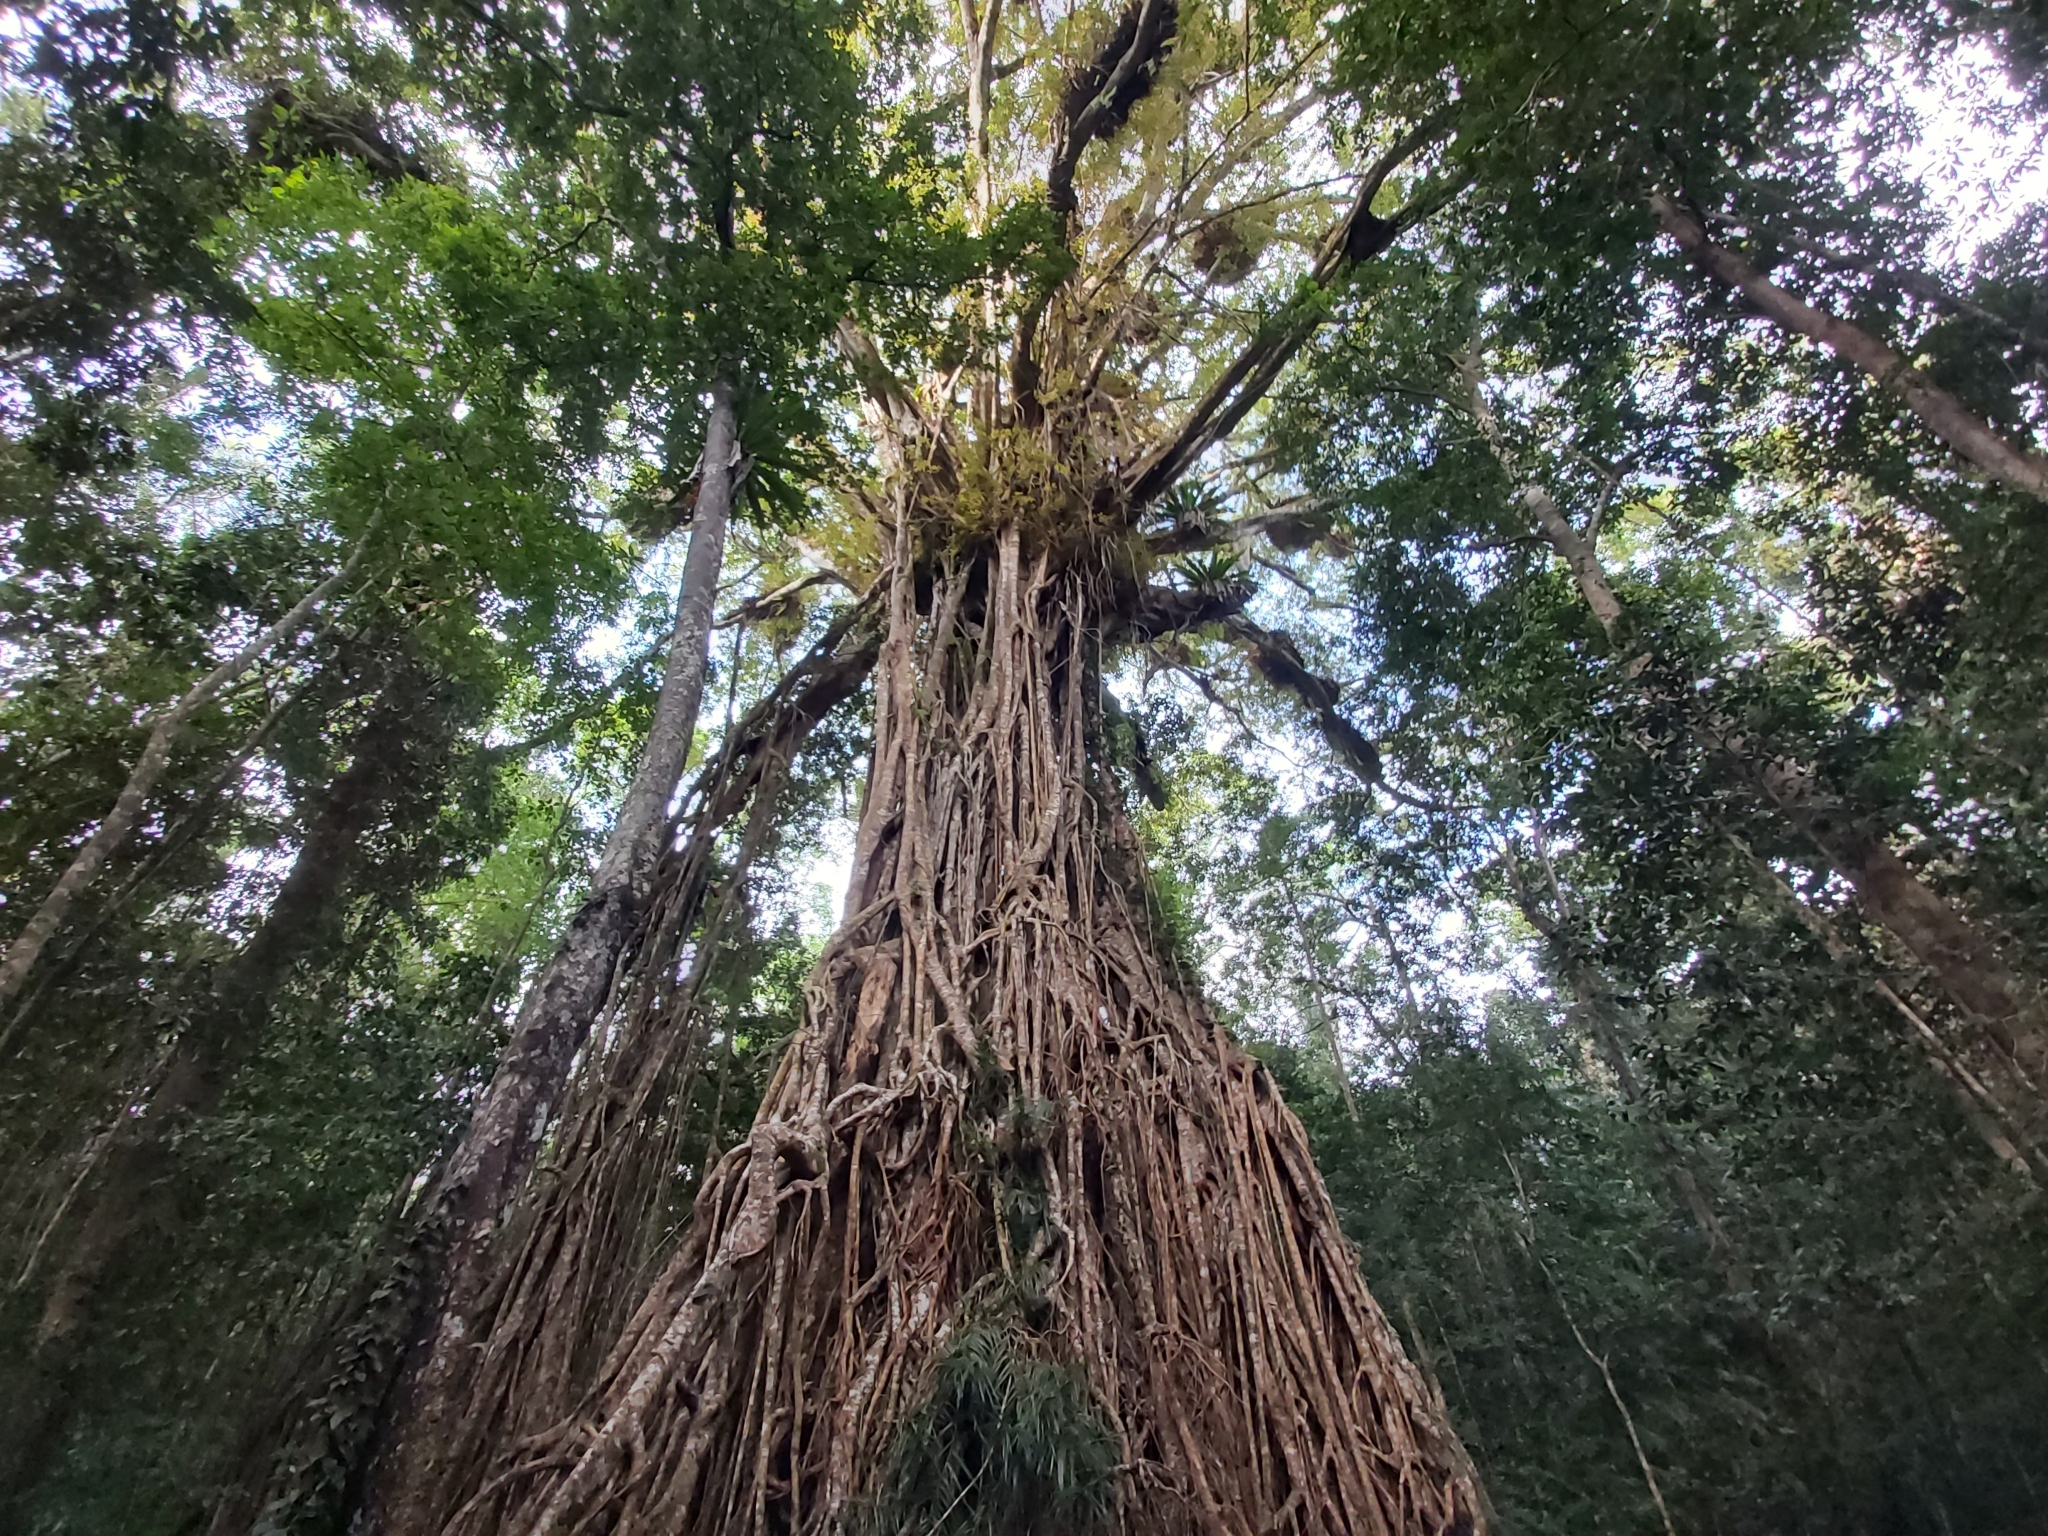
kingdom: Plantae
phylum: Tracheophyta
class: Magnoliopsida
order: Rosales
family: Moraceae
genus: Ficus
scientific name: Ficus virens
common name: Spotted fig
